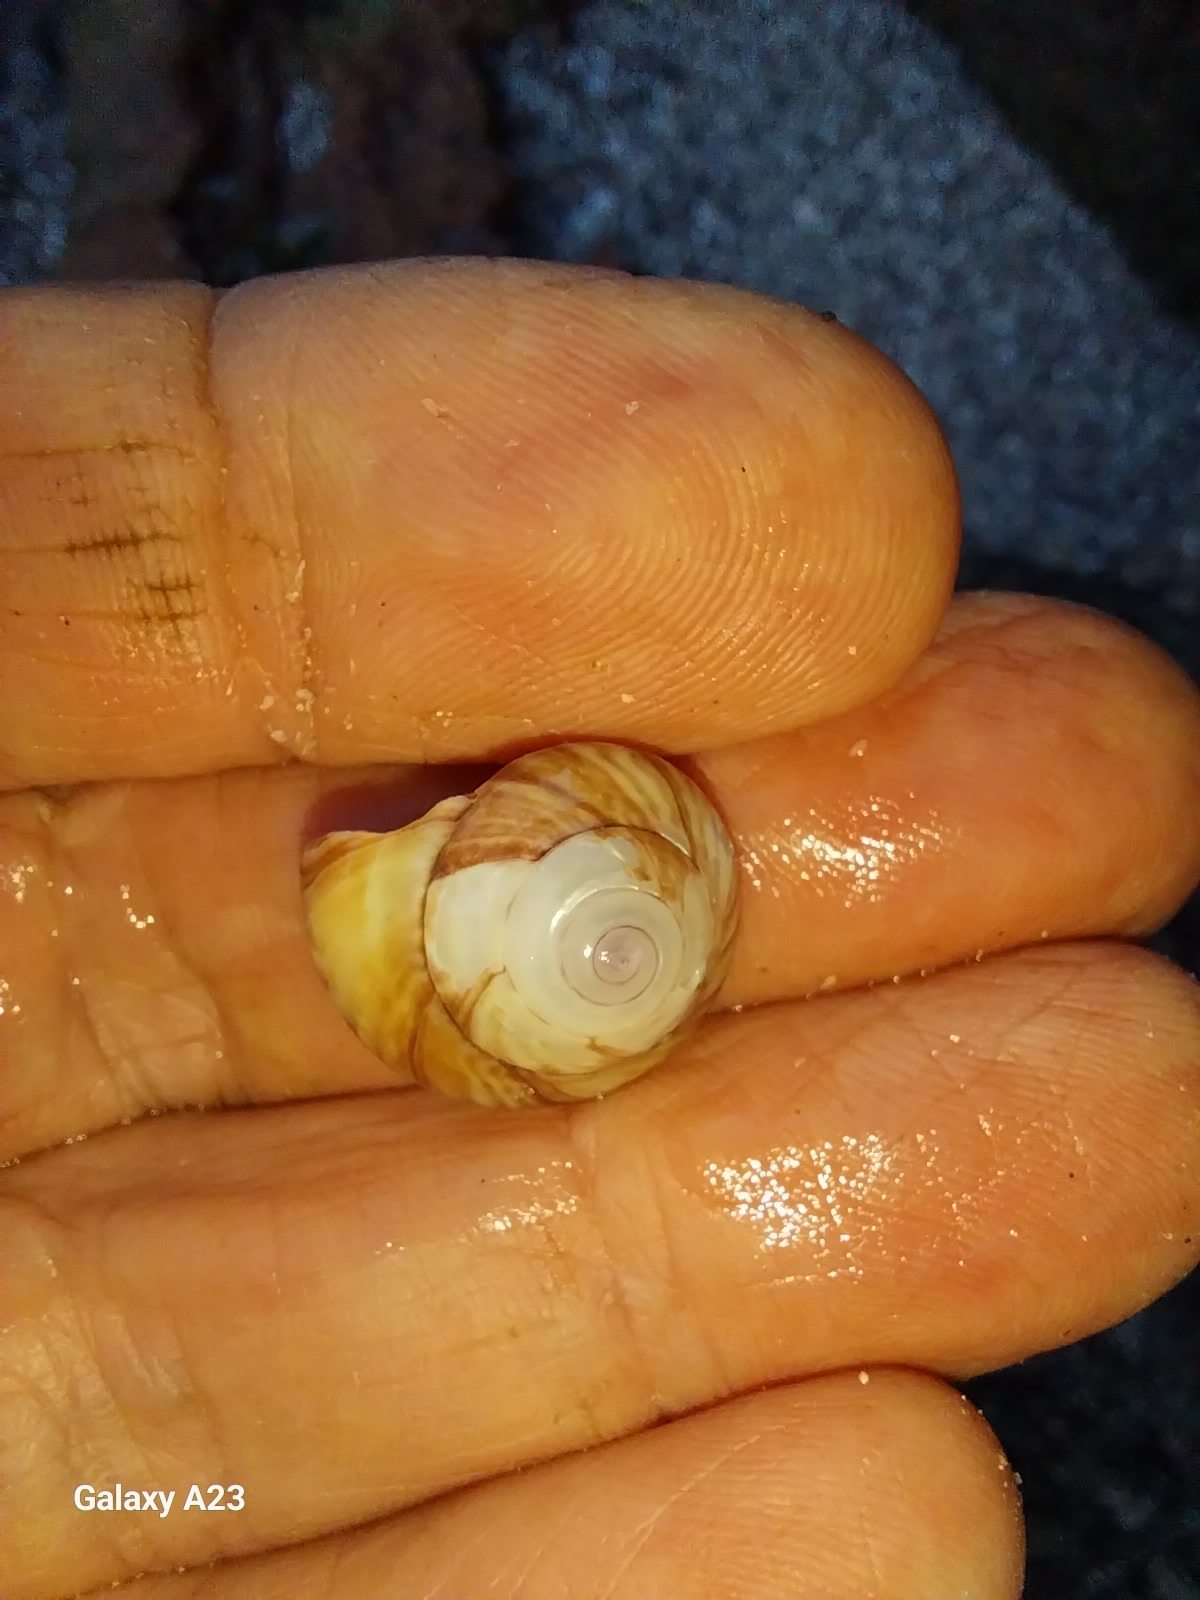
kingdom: Animalia
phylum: Mollusca
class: Gastropoda
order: Trochida
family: Trochidae
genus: Zethalia
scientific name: Zethalia zelandica
